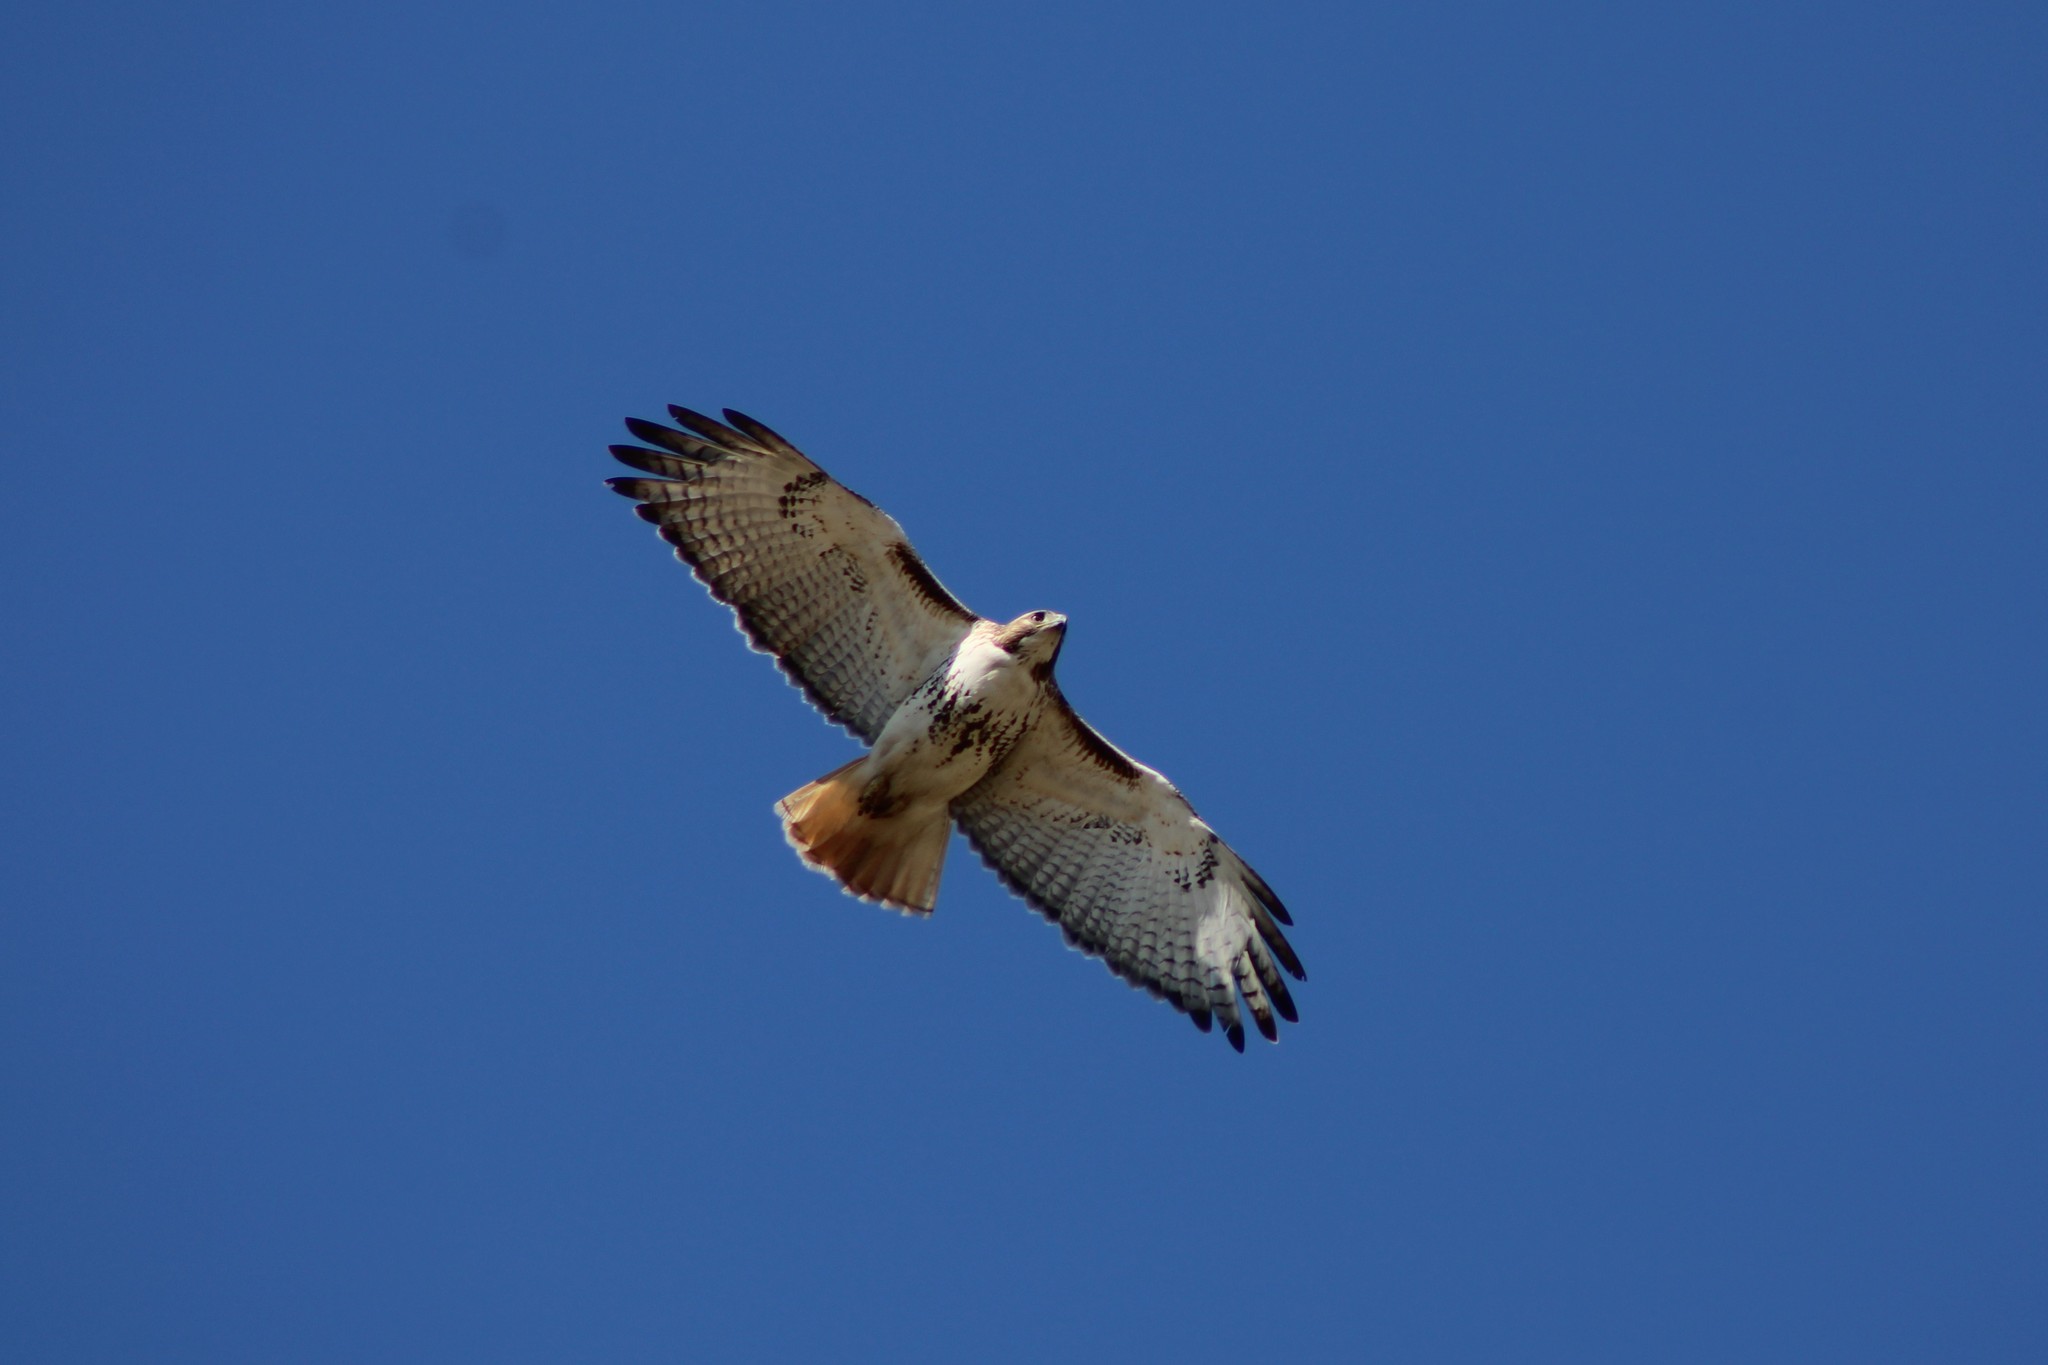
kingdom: Animalia
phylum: Chordata
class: Aves
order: Accipitriformes
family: Accipitridae
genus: Buteo
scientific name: Buteo jamaicensis
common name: Red-tailed hawk
